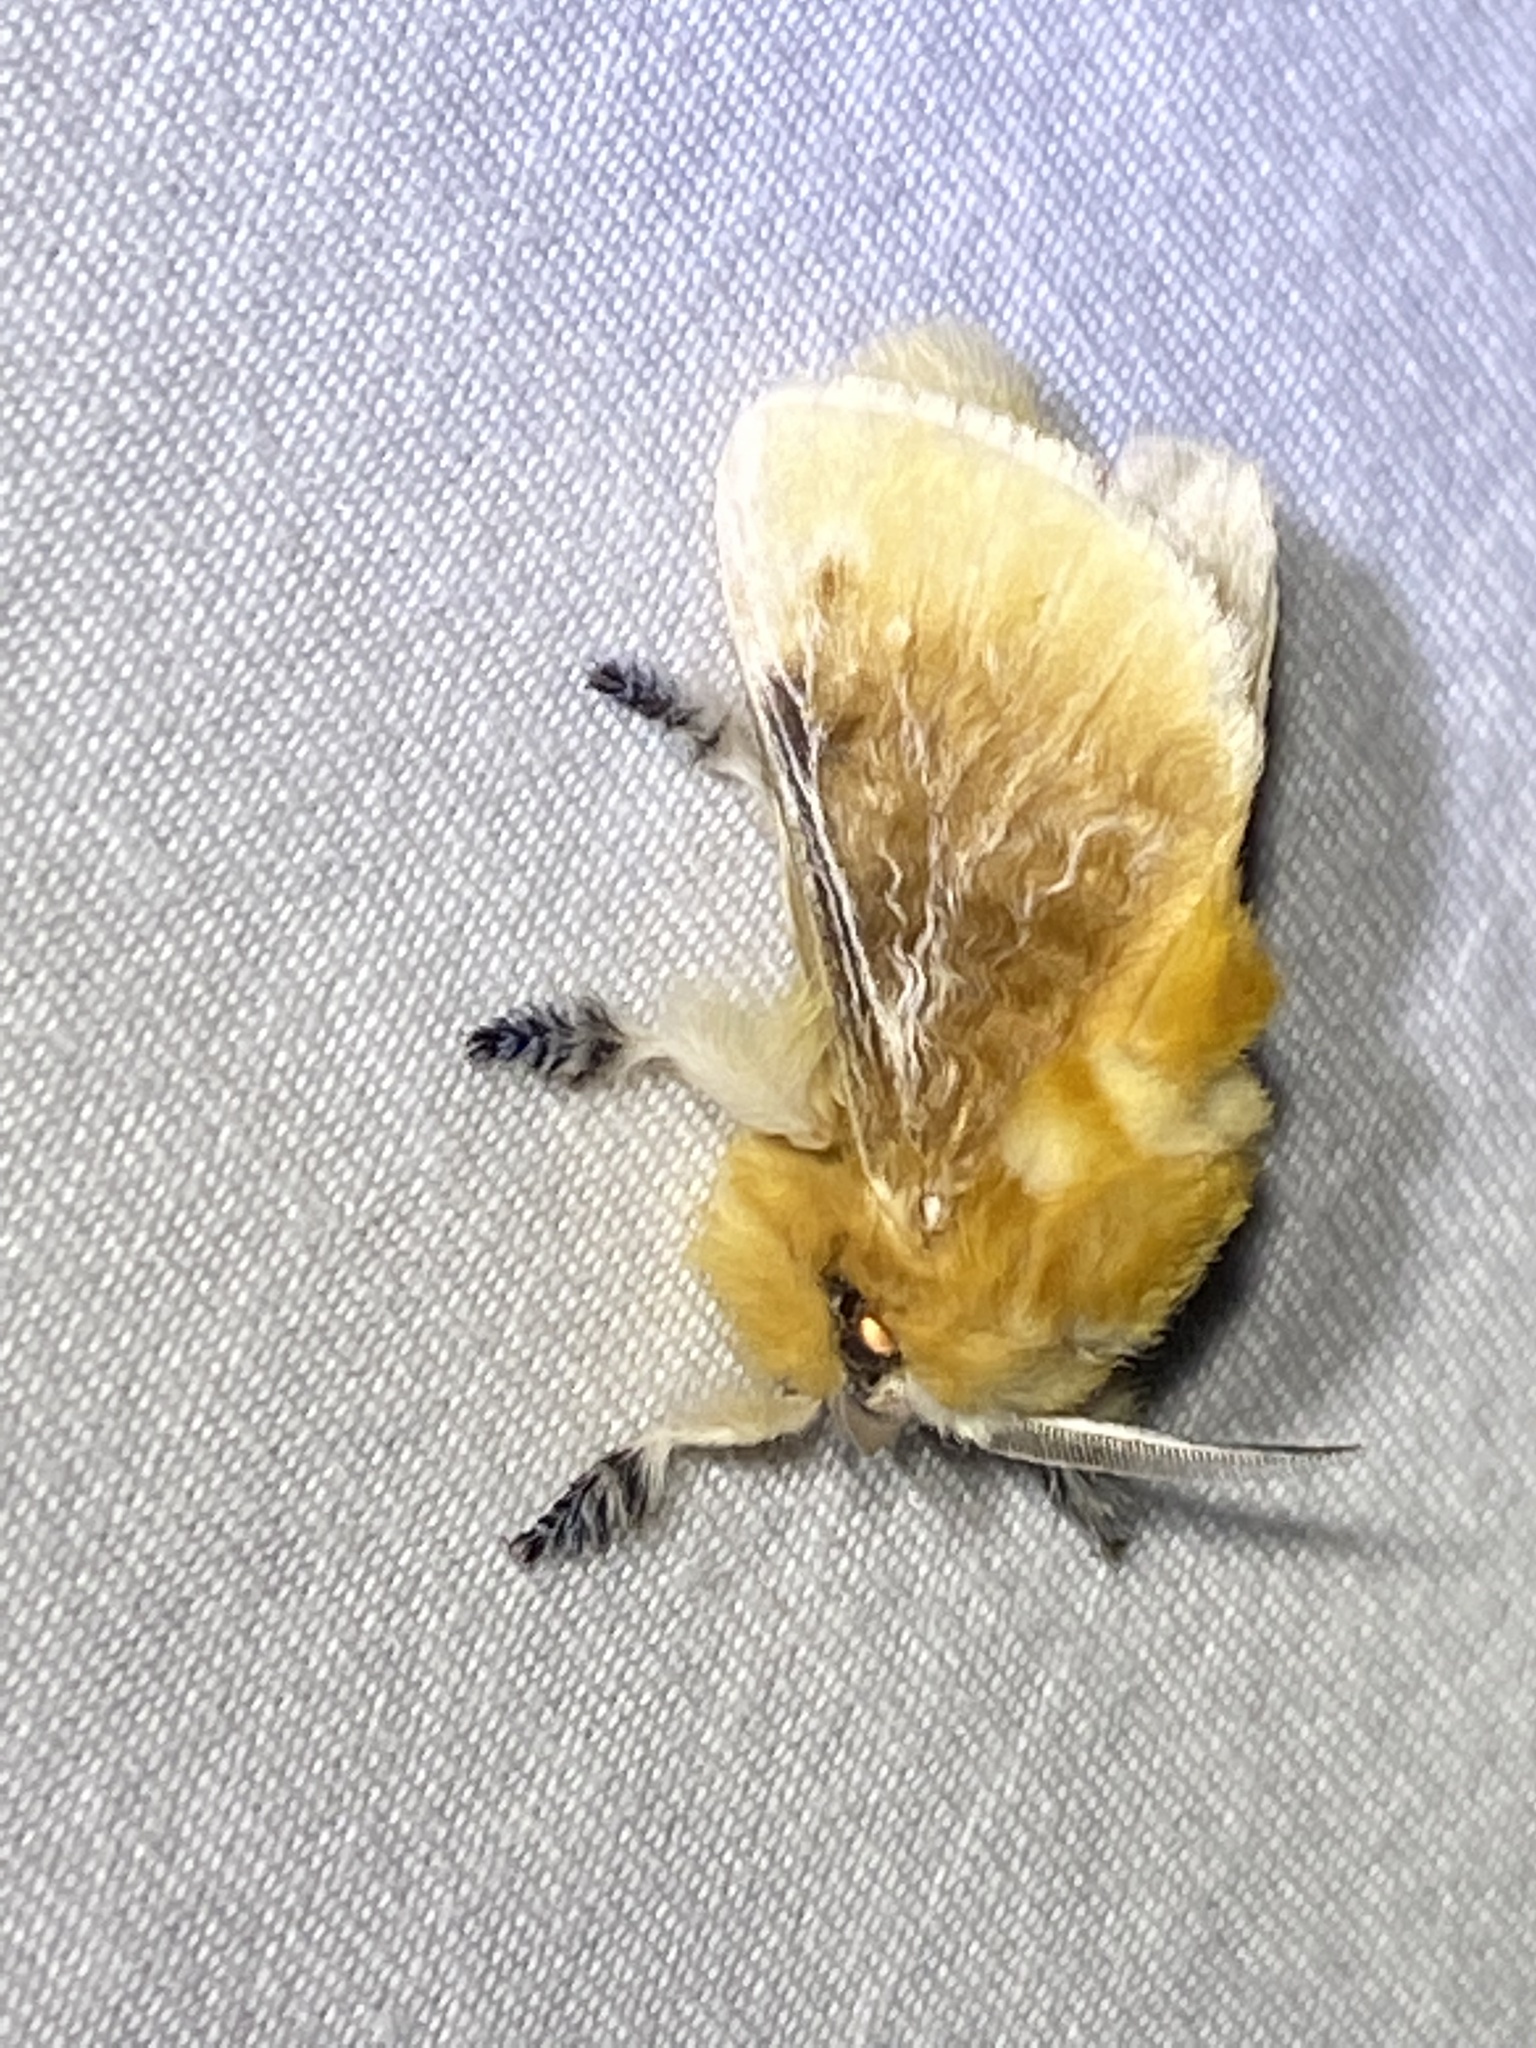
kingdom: Animalia
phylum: Arthropoda
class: Insecta
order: Lepidoptera
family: Megalopygidae
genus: Megalopyge
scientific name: Megalopyge opercularis
